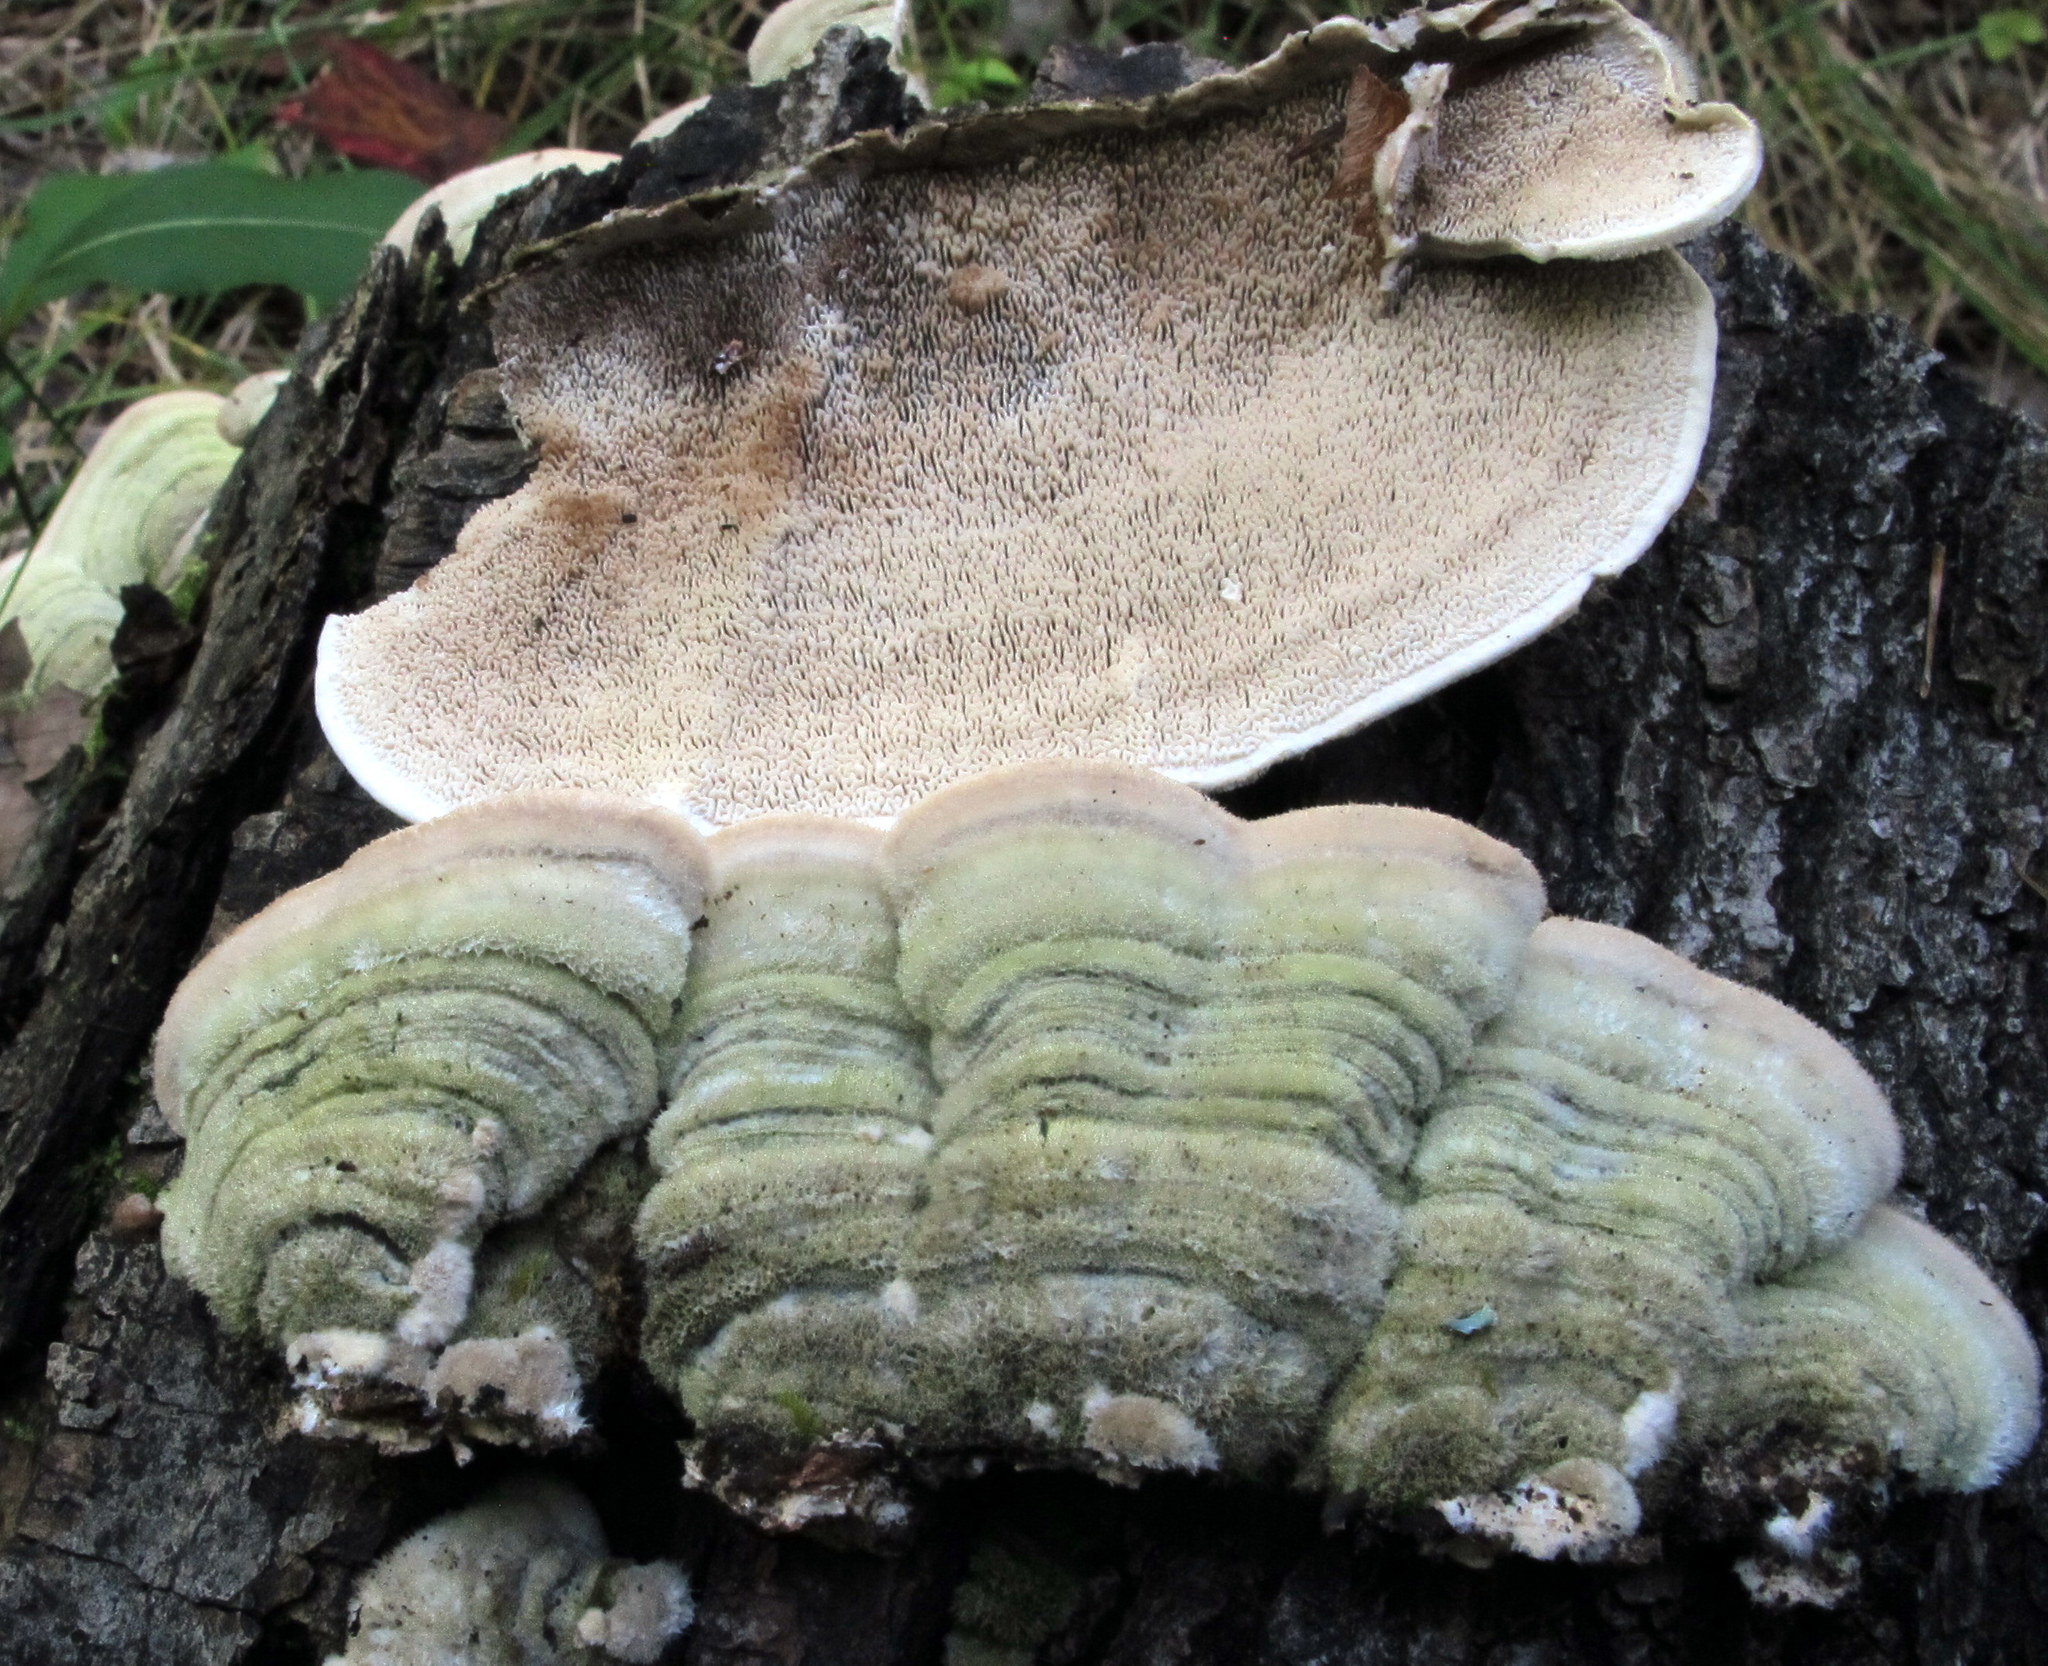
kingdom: Fungi
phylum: Basidiomycota
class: Agaricomycetes
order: Polyporales
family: Cerrenaceae
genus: Cerrena
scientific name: Cerrena unicolor
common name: Mossy maze polypore
